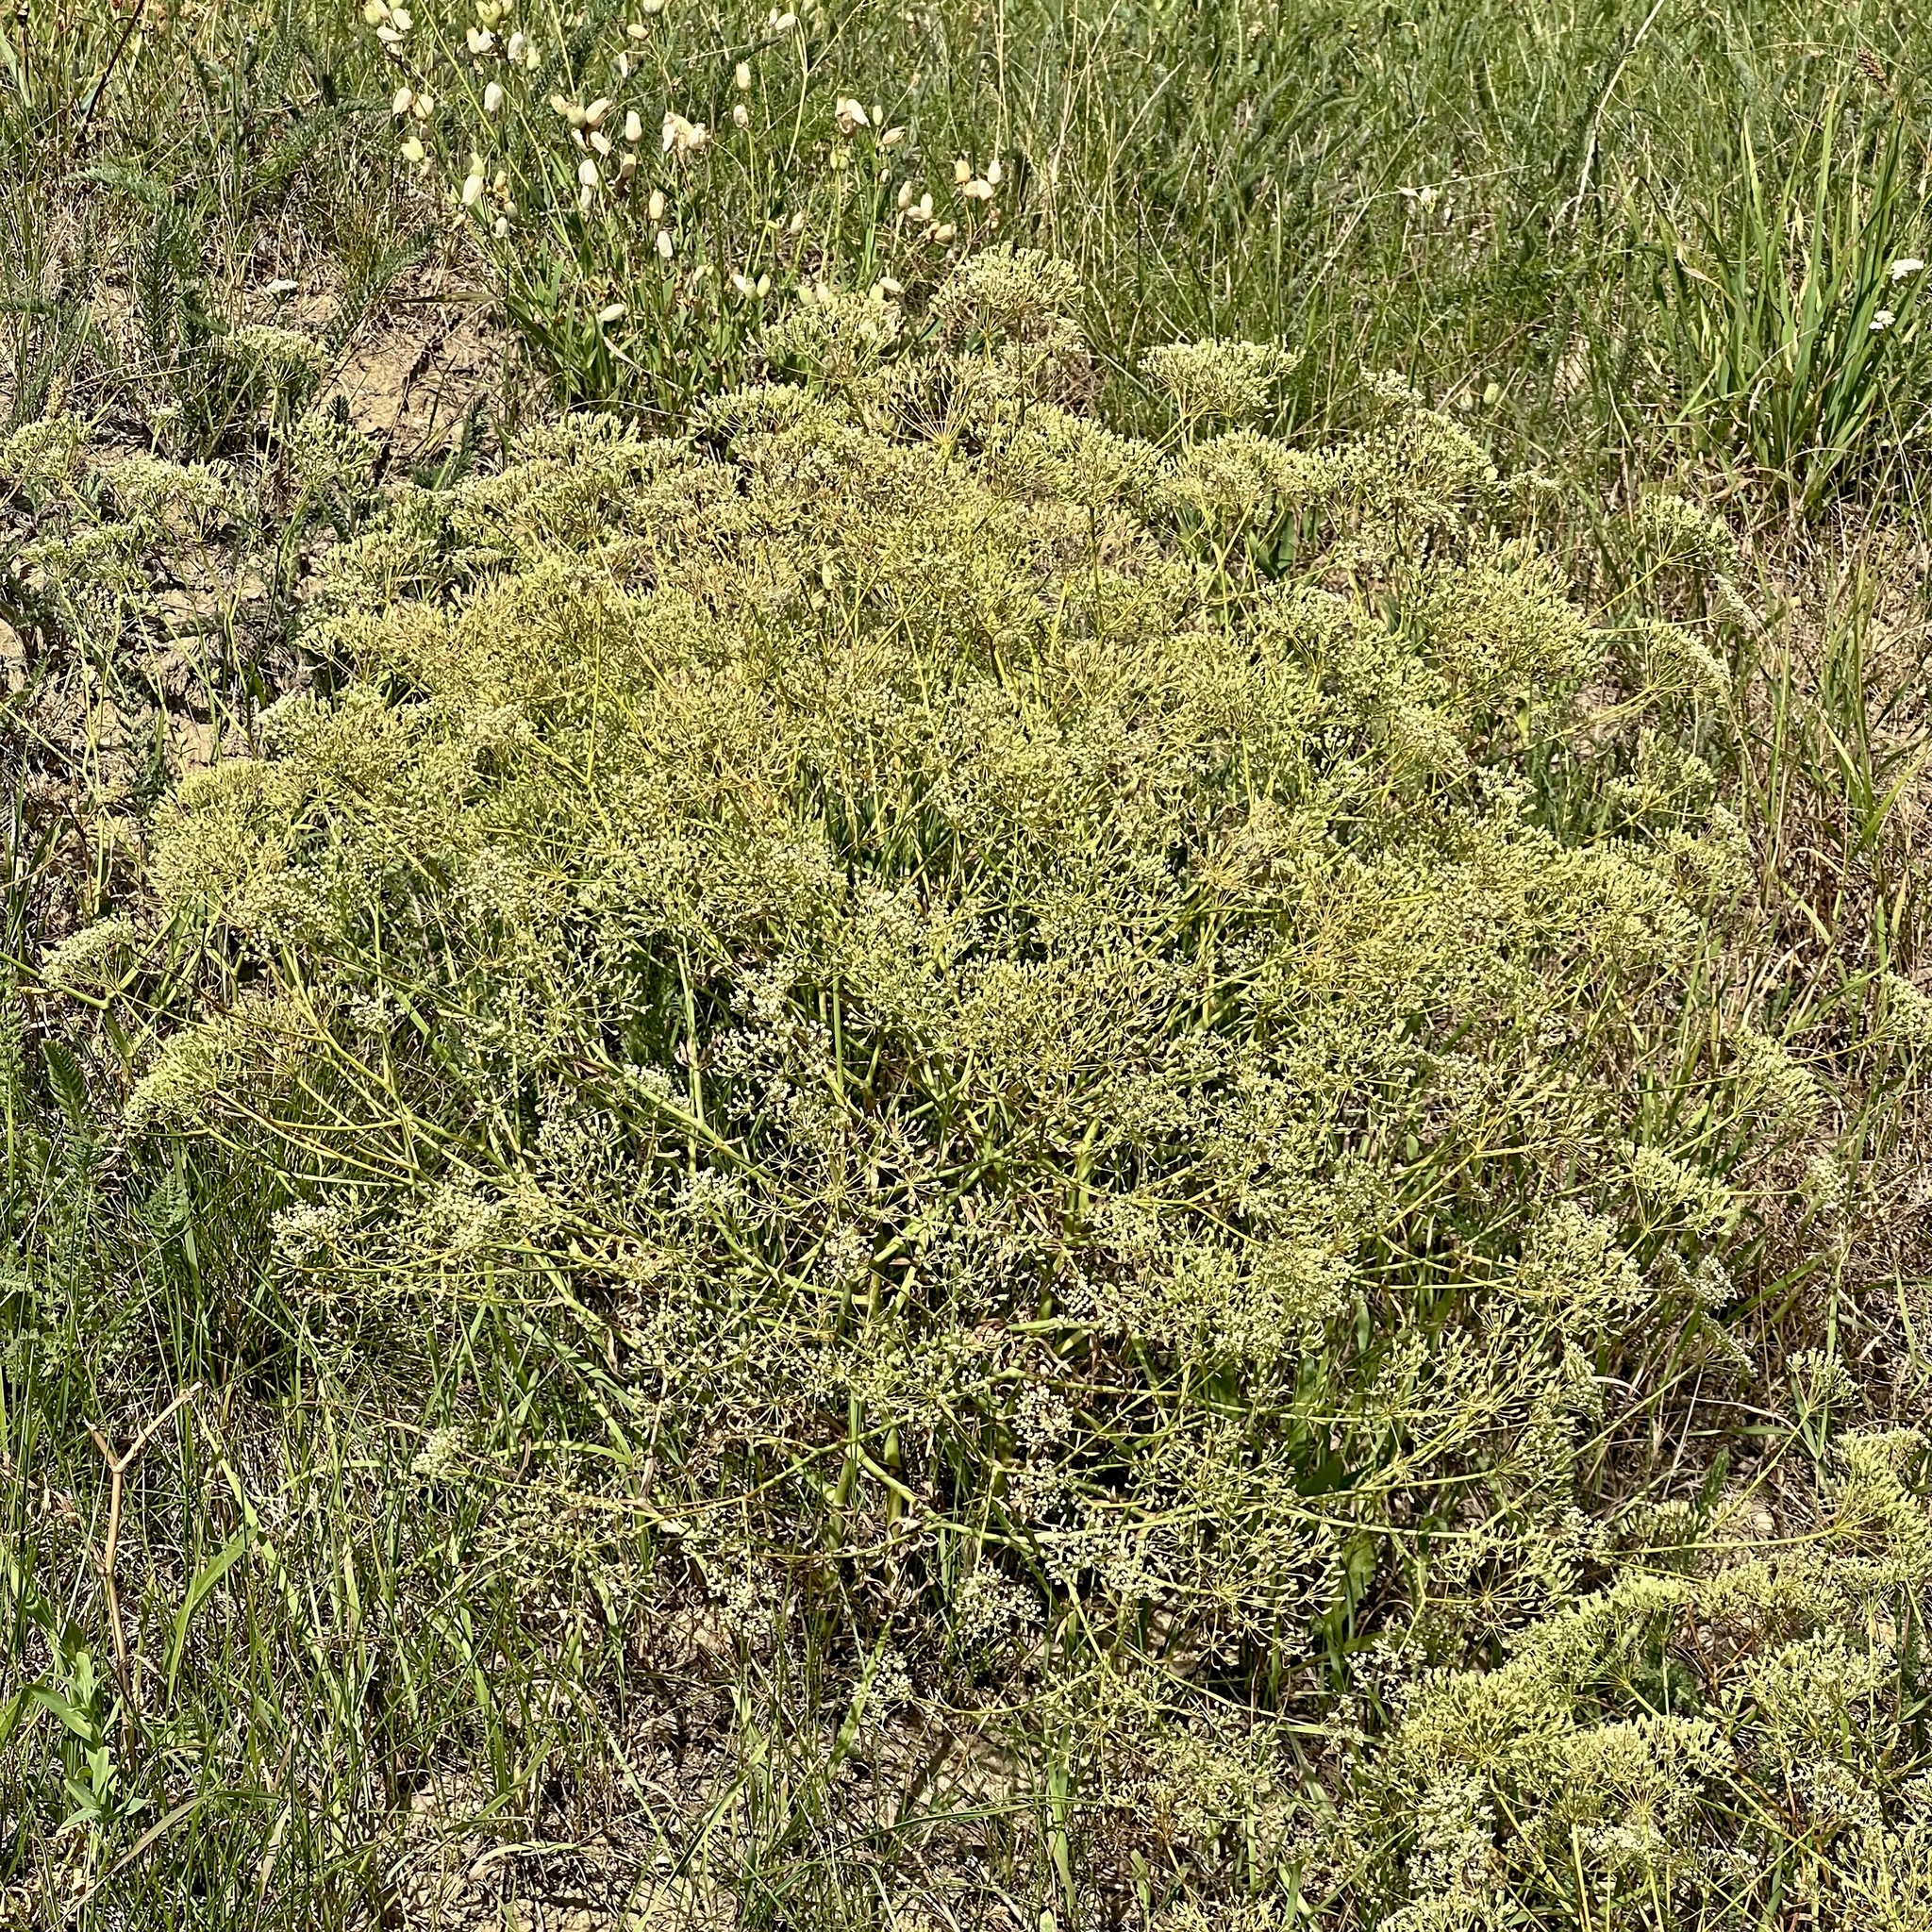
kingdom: Plantae
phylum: Tracheophyta
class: Magnoliopsida
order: Apiales
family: Apiaceae
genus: Falcaria
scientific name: Falcaria vulgaris
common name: Longleaf
